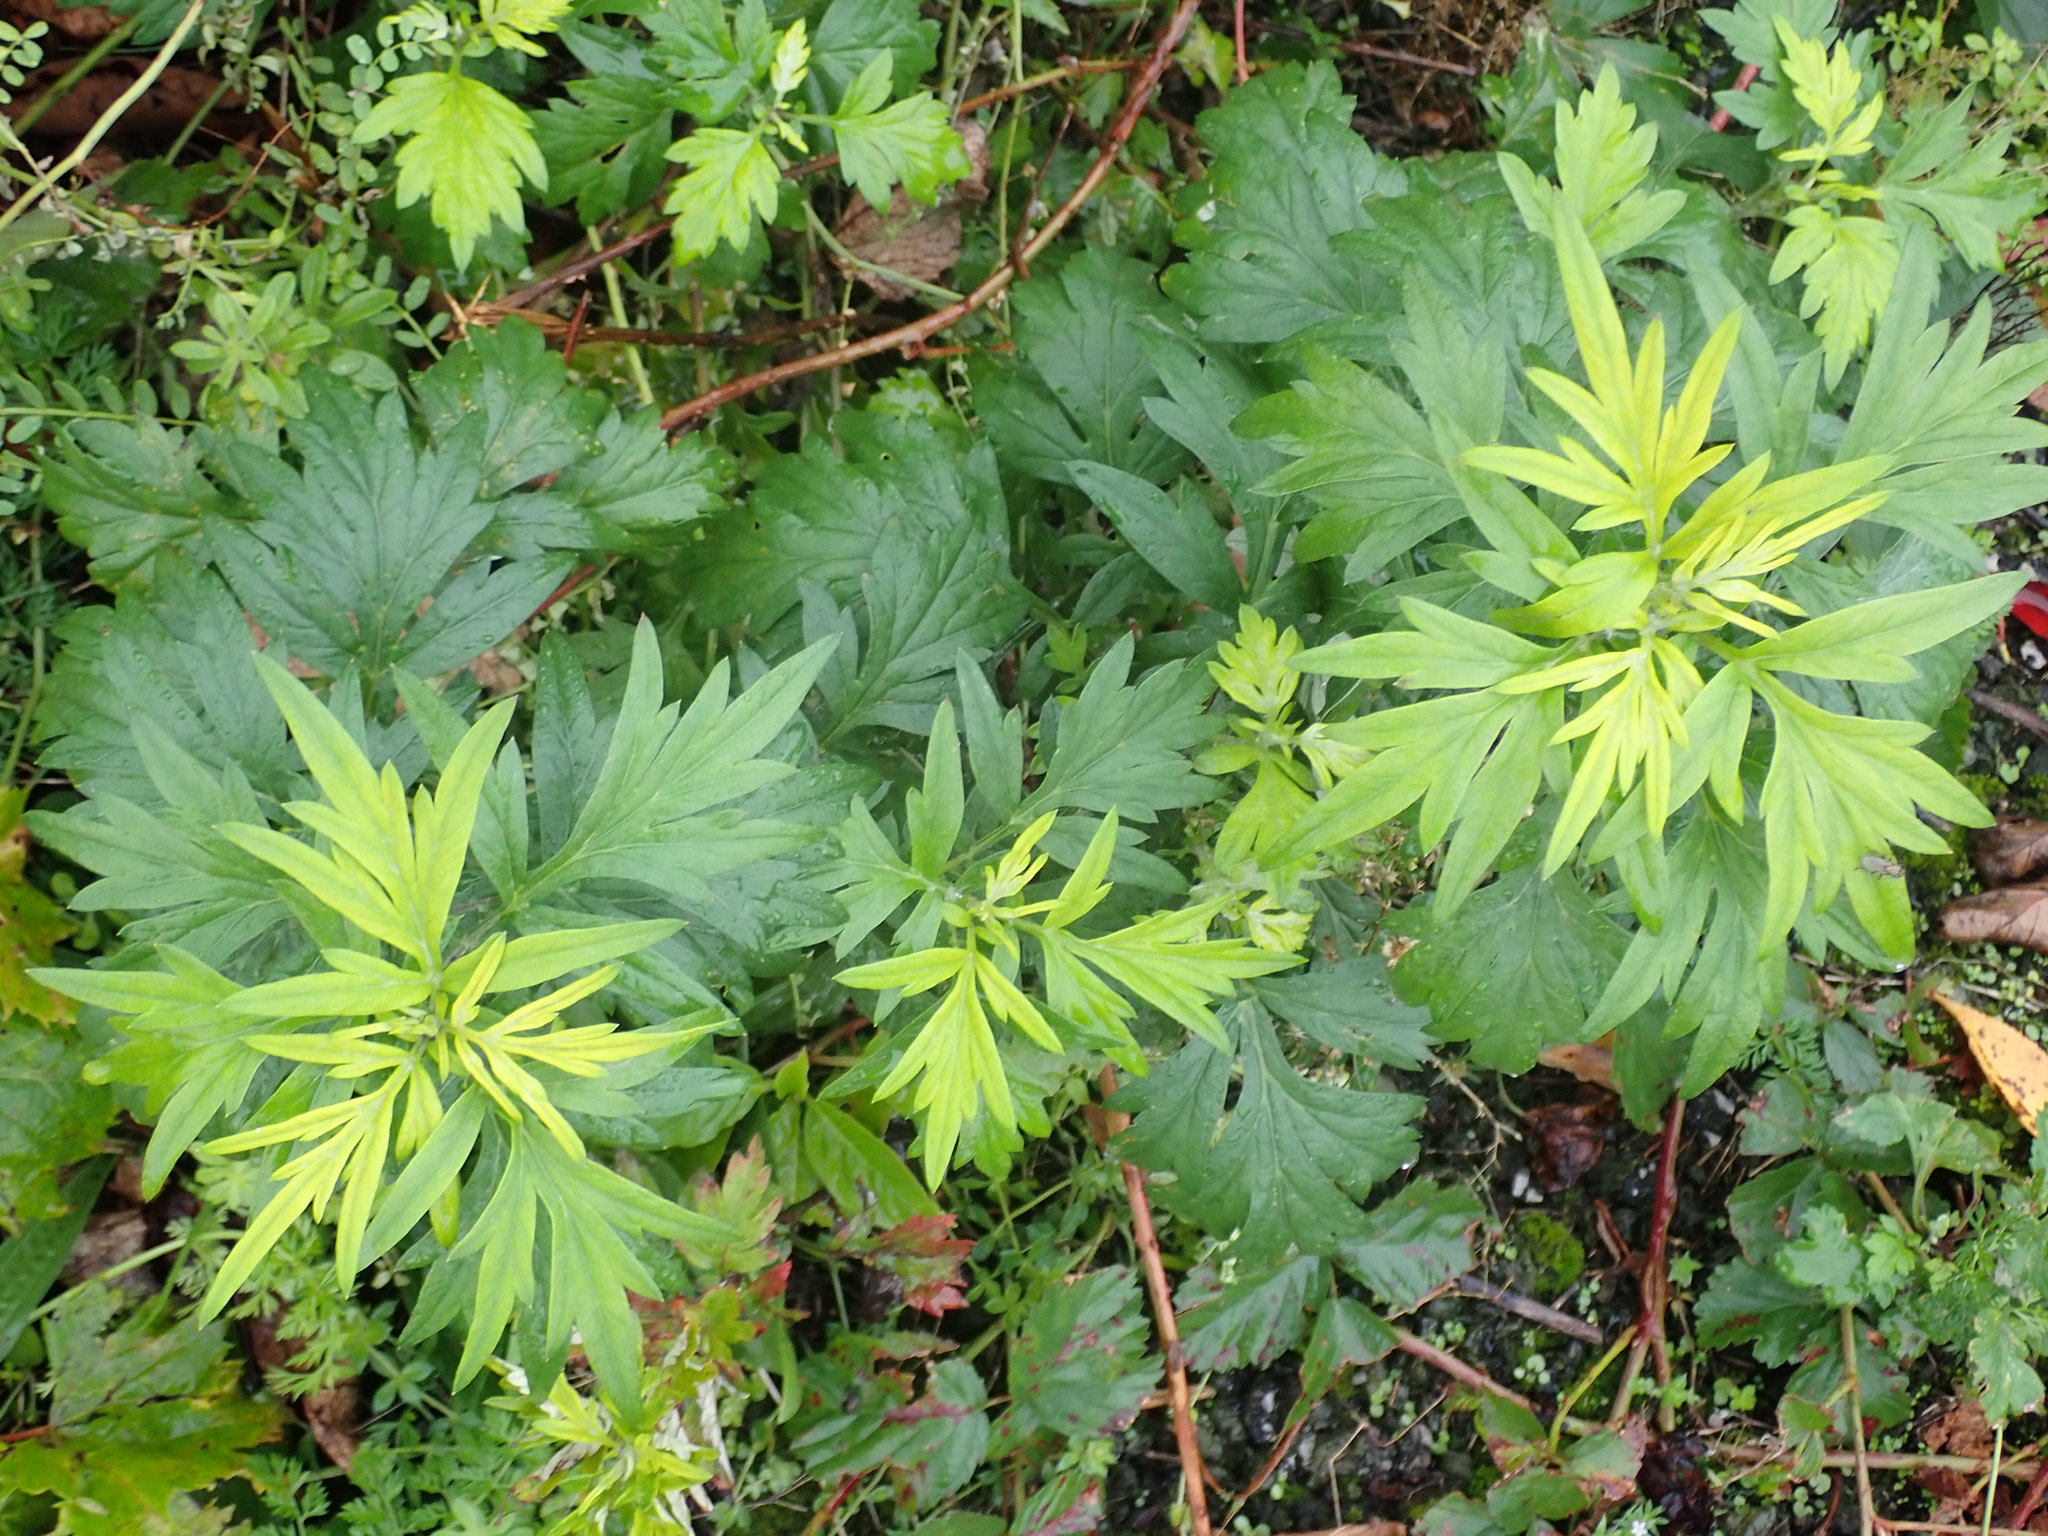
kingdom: Plantae
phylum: Tracheophyta
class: Magnoliopsida
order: Asterales
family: Asteraceae
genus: Artemisia
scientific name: Artemisia vulgaris
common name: Mugwort
